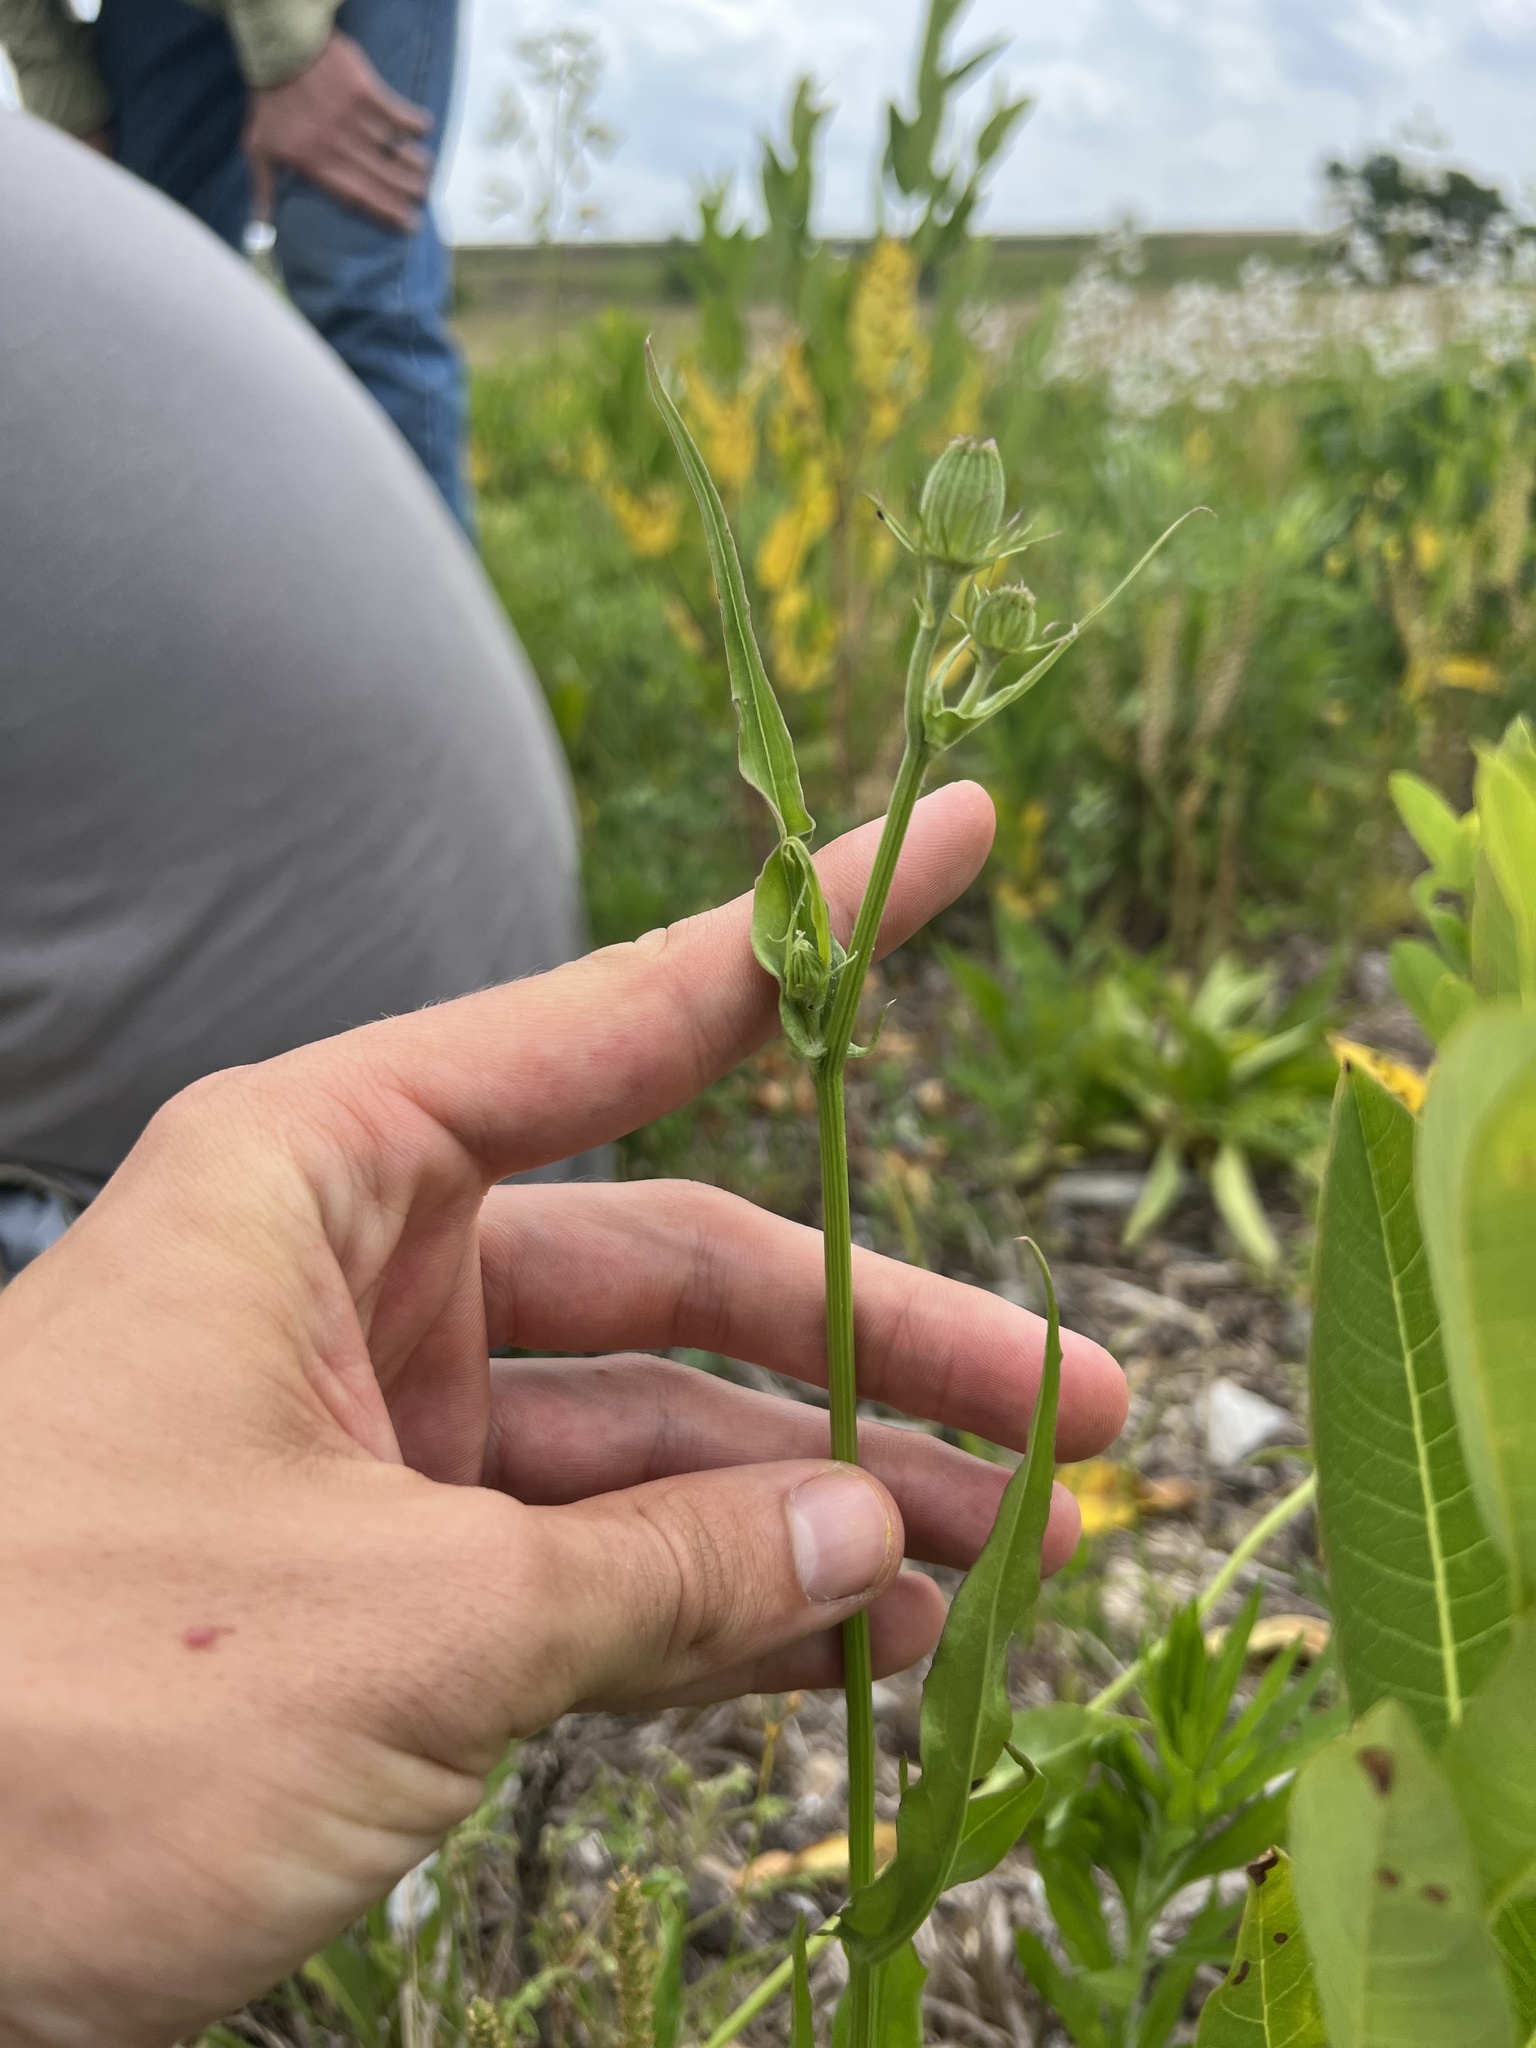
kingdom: Plantae
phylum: Tracheophyta
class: Magnoliopsida
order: Asterales
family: Asteraceae
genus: Pyrrhopappus
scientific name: Pyrrhopappus carolinianus
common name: Carolina desert-chicory
